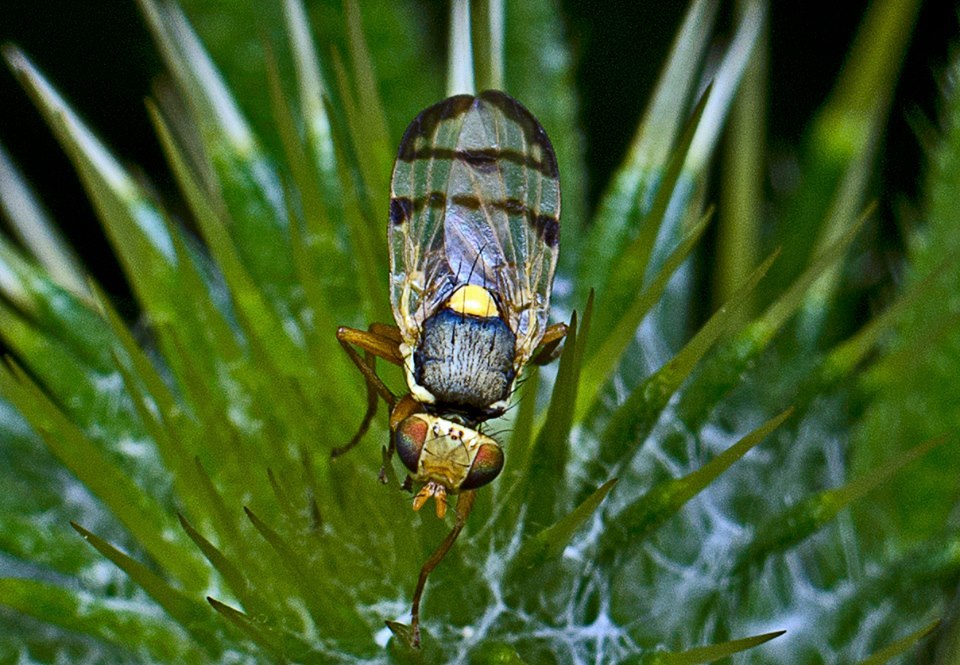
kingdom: Animalia
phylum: Arthropoda
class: Insecta
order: Diptera
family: Tephritidae
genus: Urophora
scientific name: Urophora stylata
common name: Fruit fly
